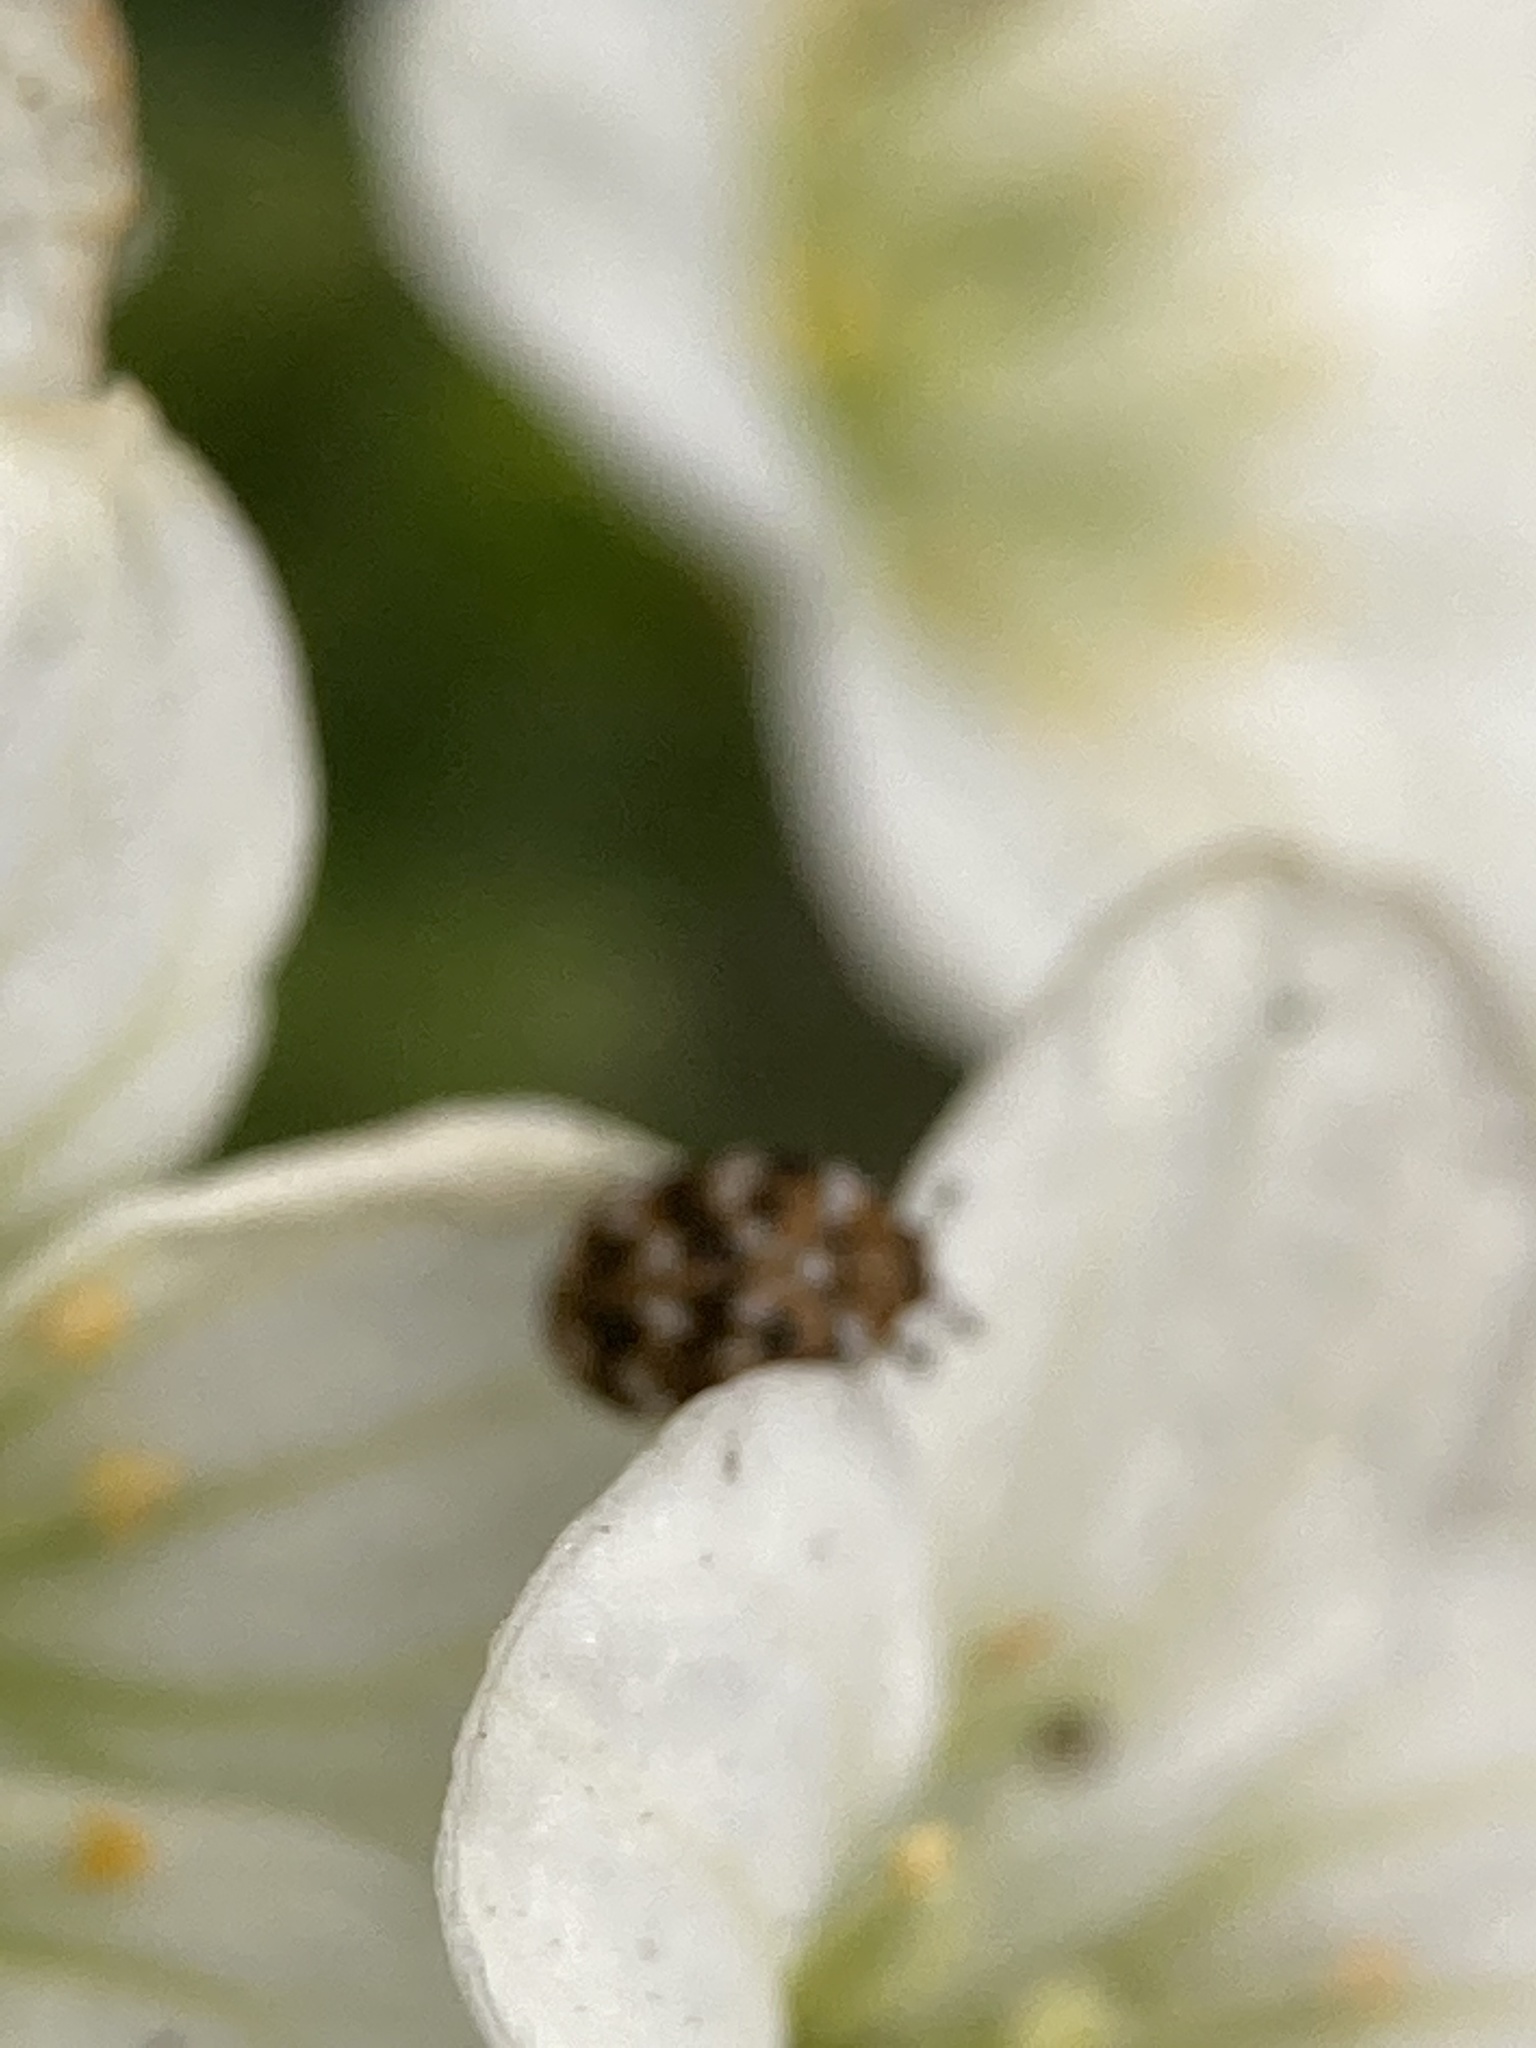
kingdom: Animalia
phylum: Arthropoda
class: Insecta
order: Coleoptera
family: Dermestidae
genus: Anthrenus
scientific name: Anthrenus verbasci
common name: Varied carpet beetle
